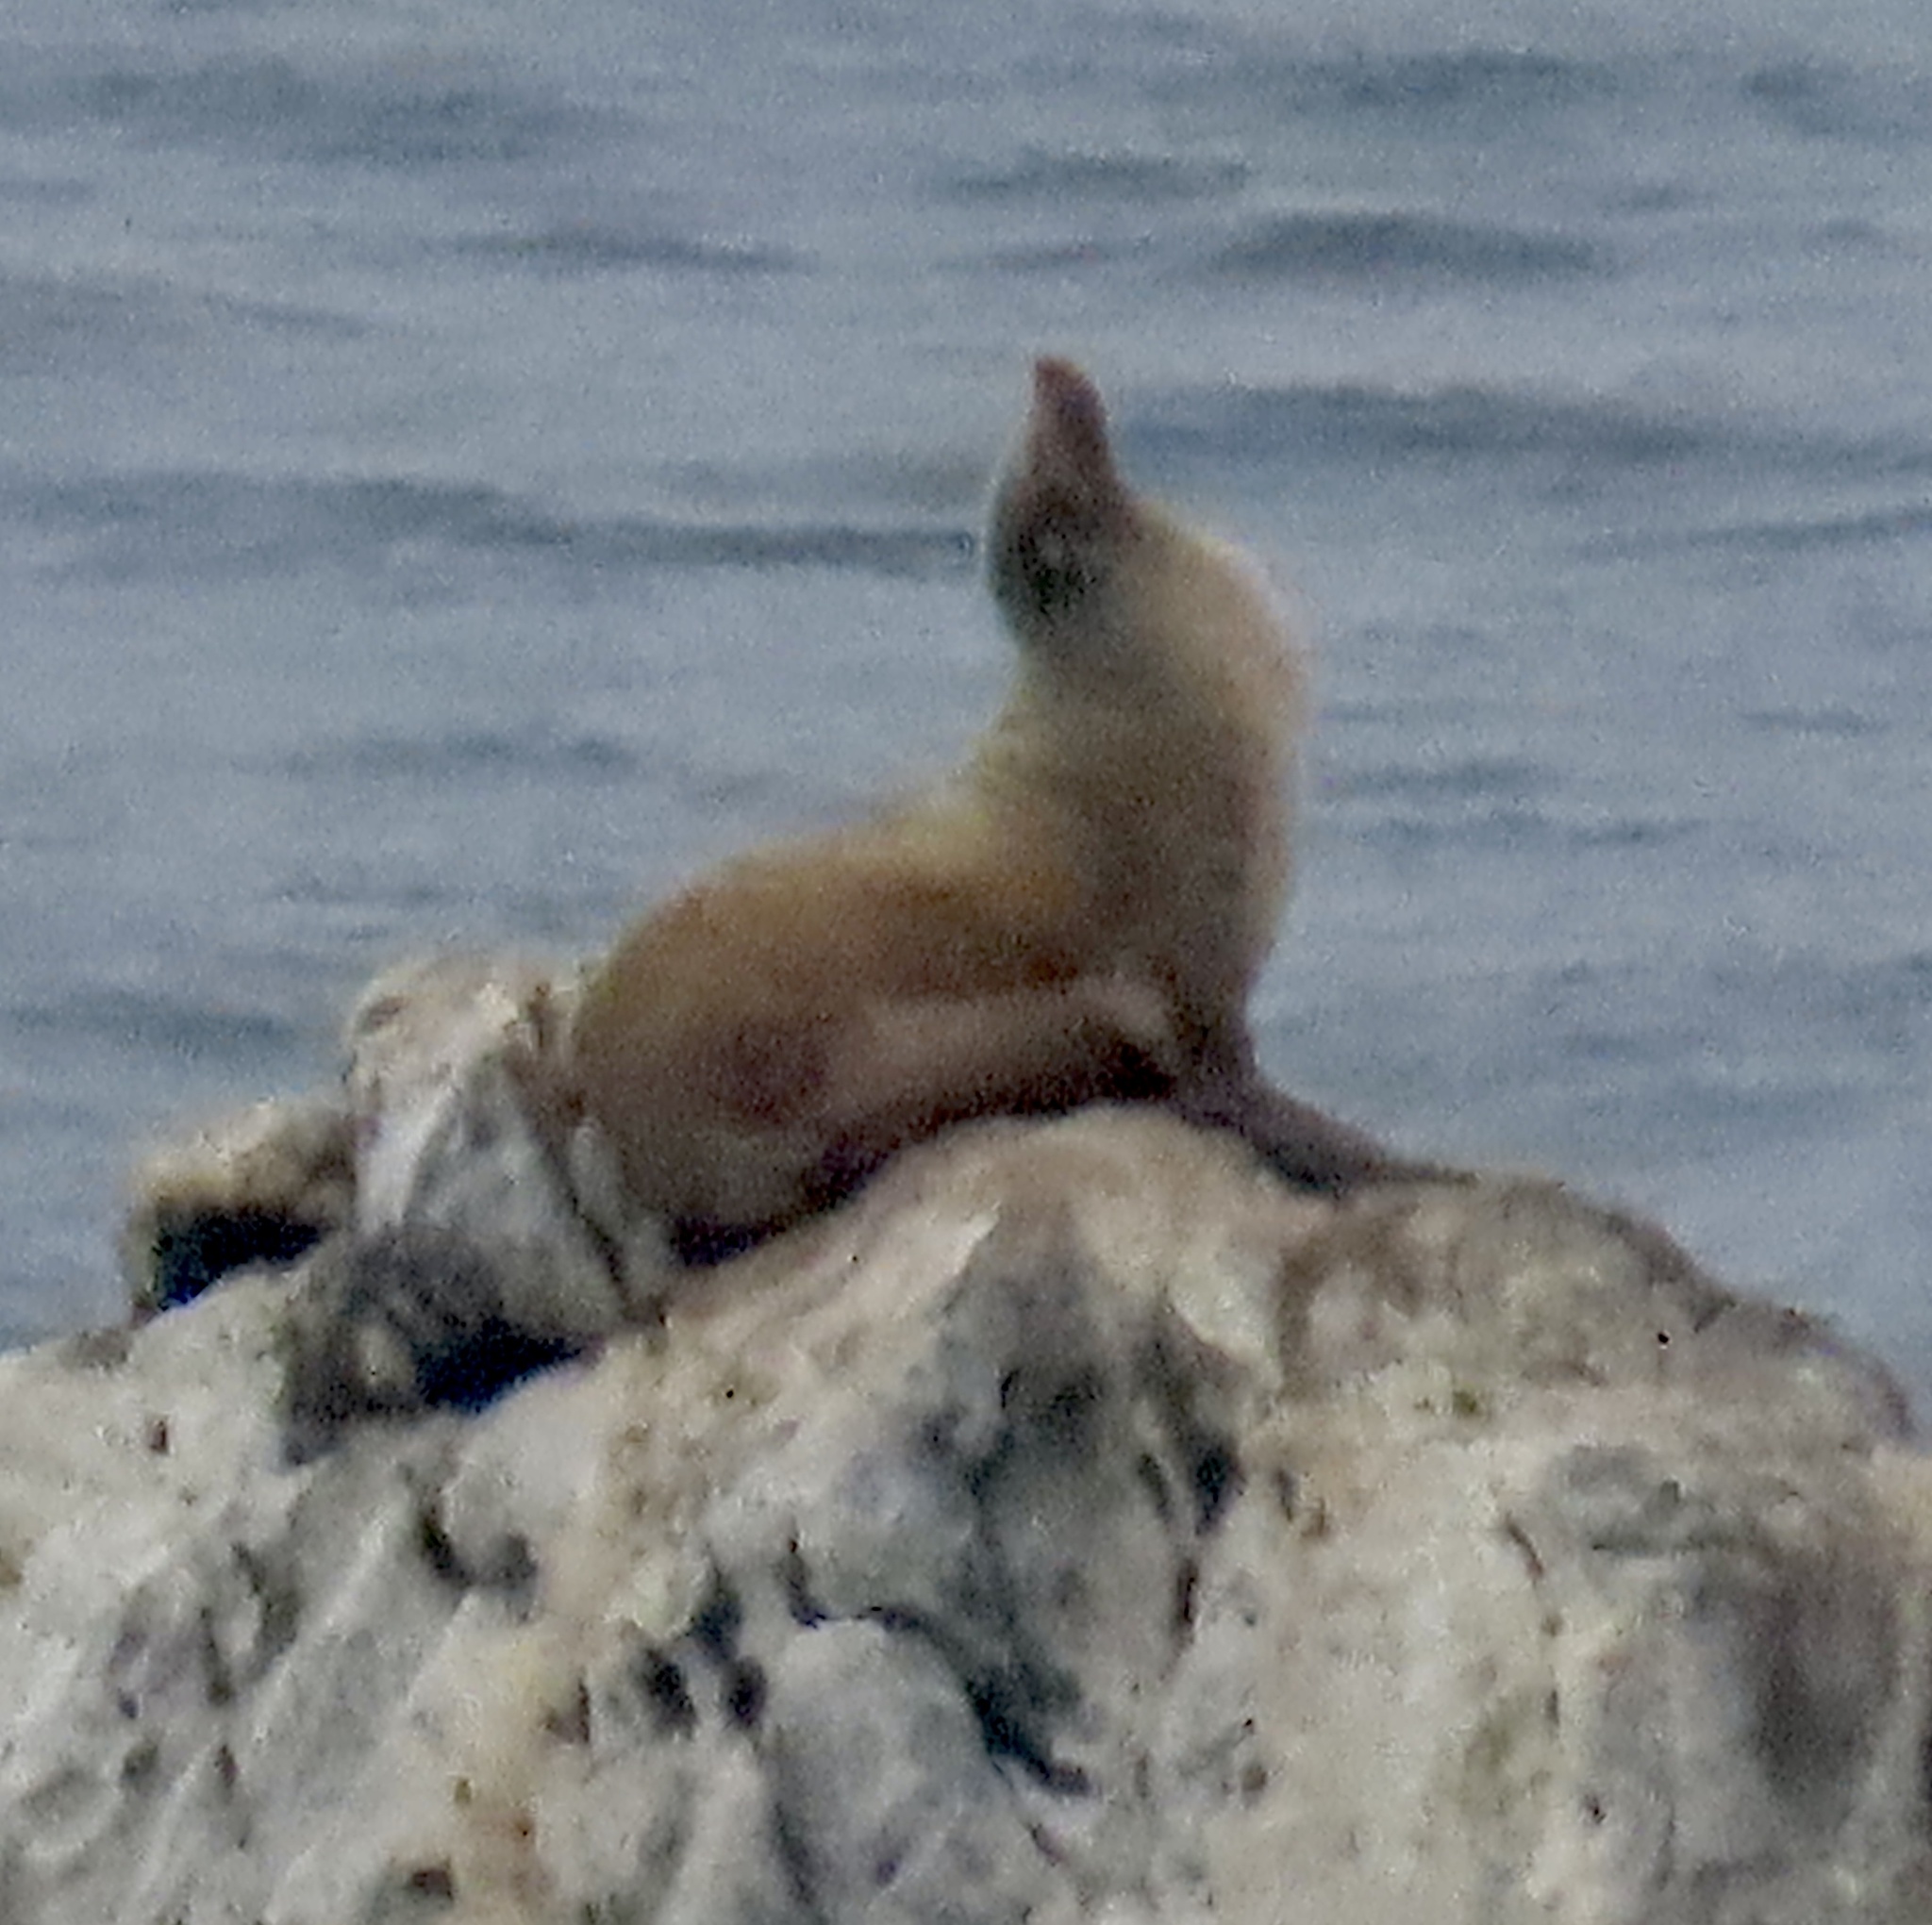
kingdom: Animalia
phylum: Chordata
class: Mammalia
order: Carnivora
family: Otariidae
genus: Zalophus
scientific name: Zalophus californianus
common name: California sea lion
